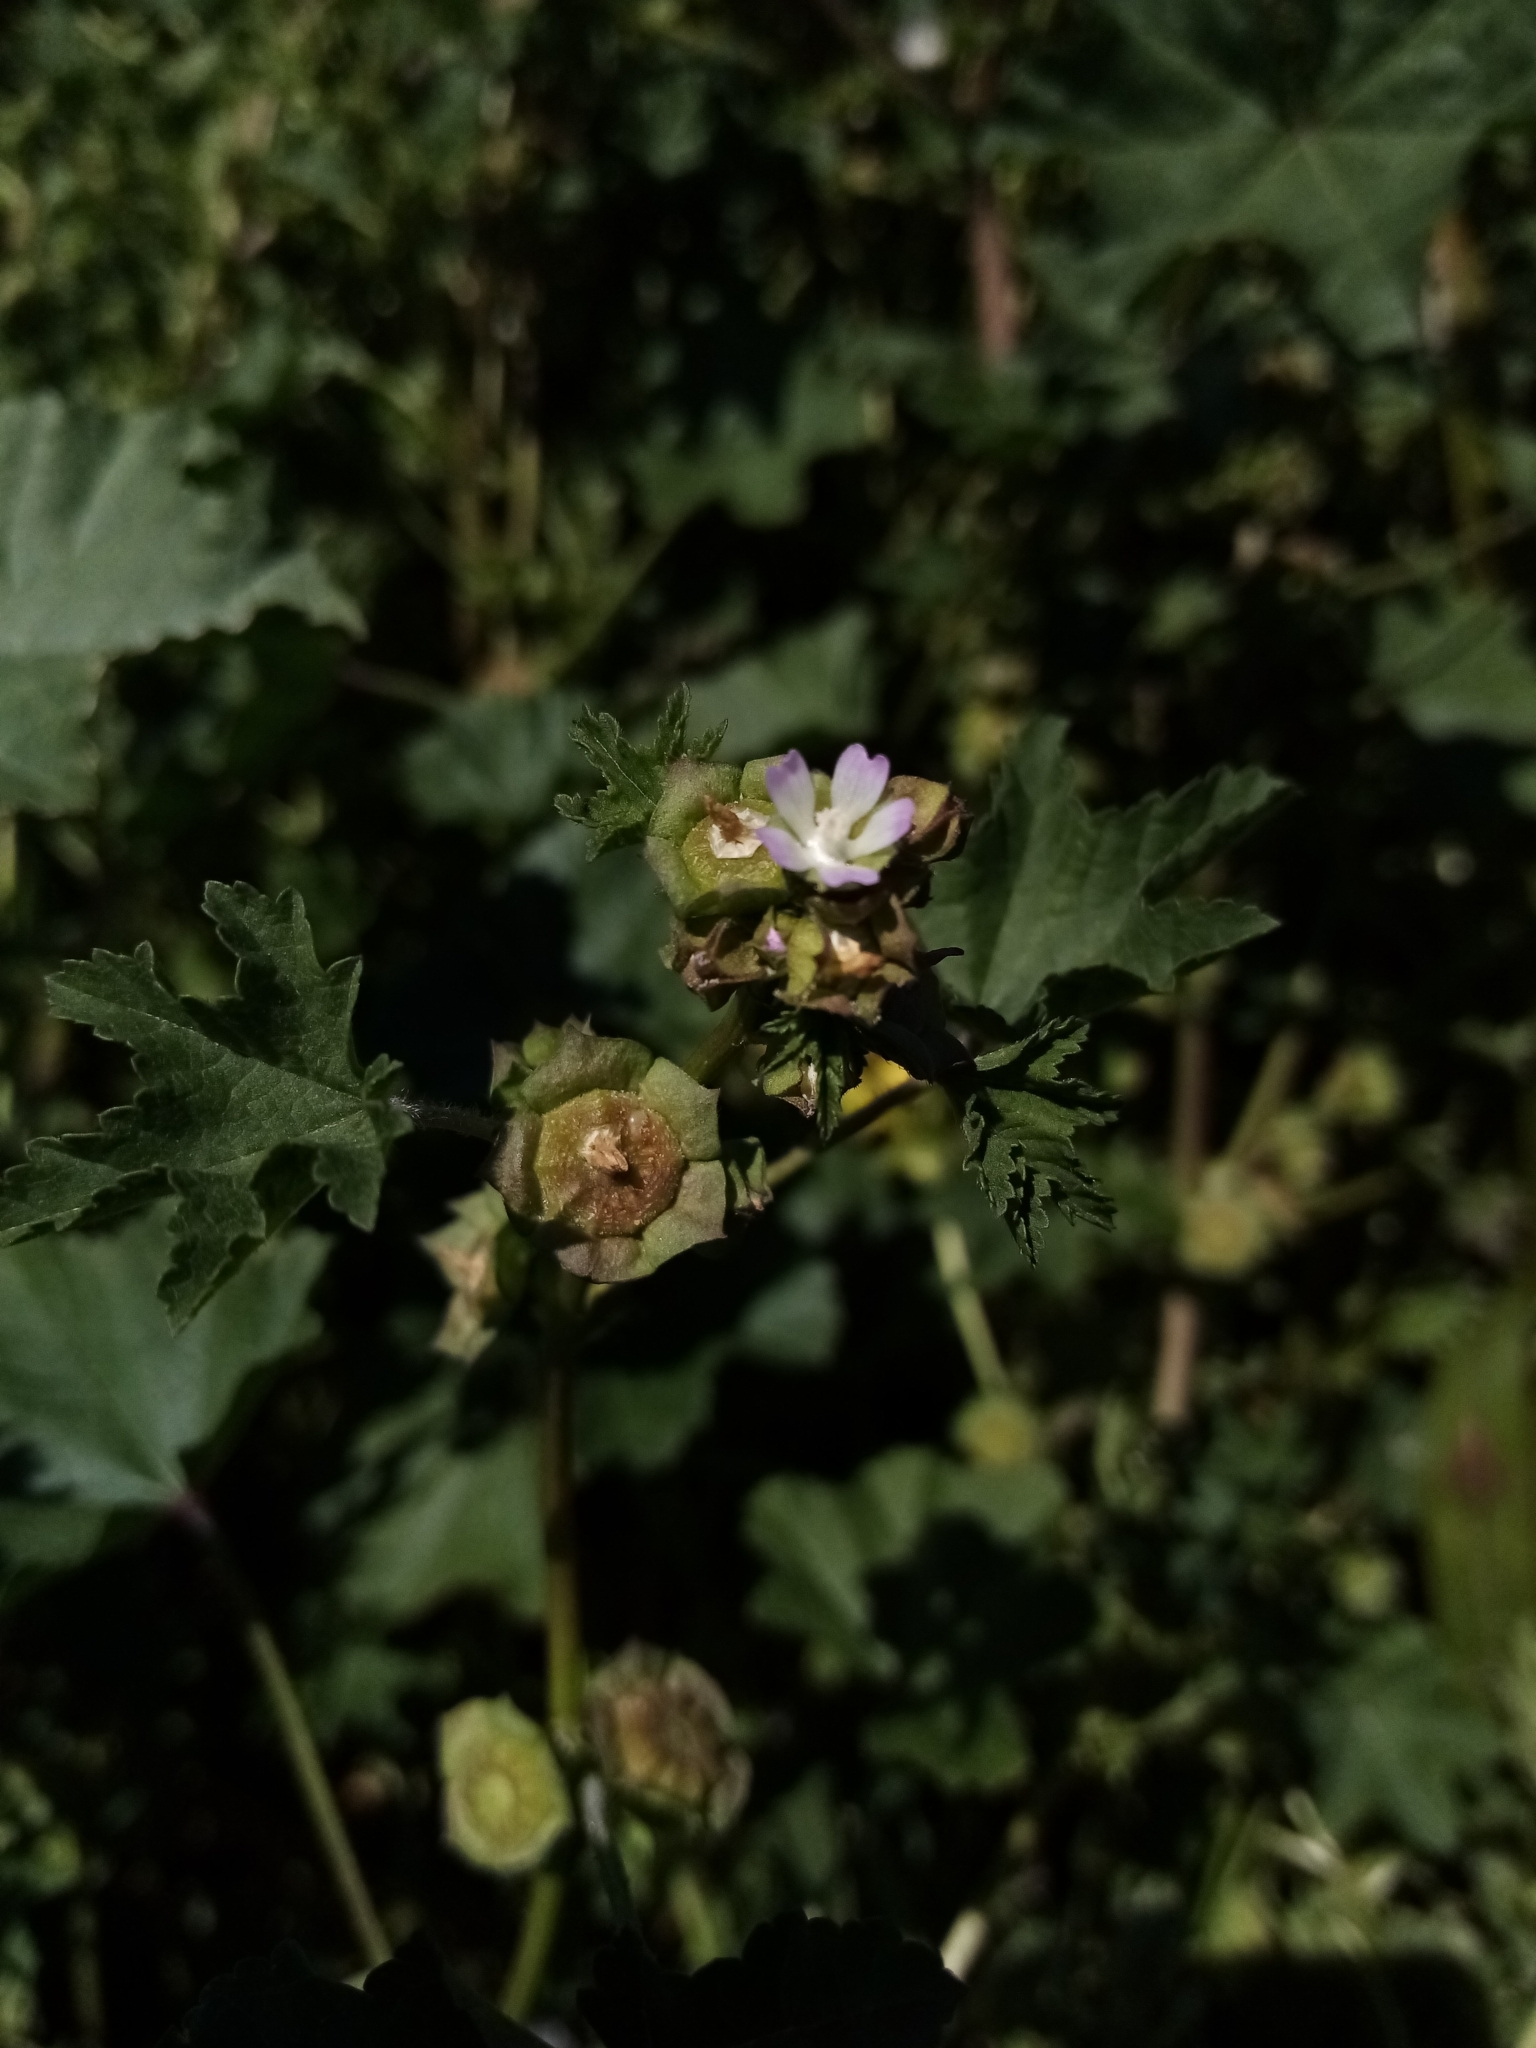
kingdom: Plantae
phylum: Tracheophyta
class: Magnoliopsida
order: Malvales
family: Malvaceae
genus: Malva
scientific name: Malva parviflora
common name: Least mallow
